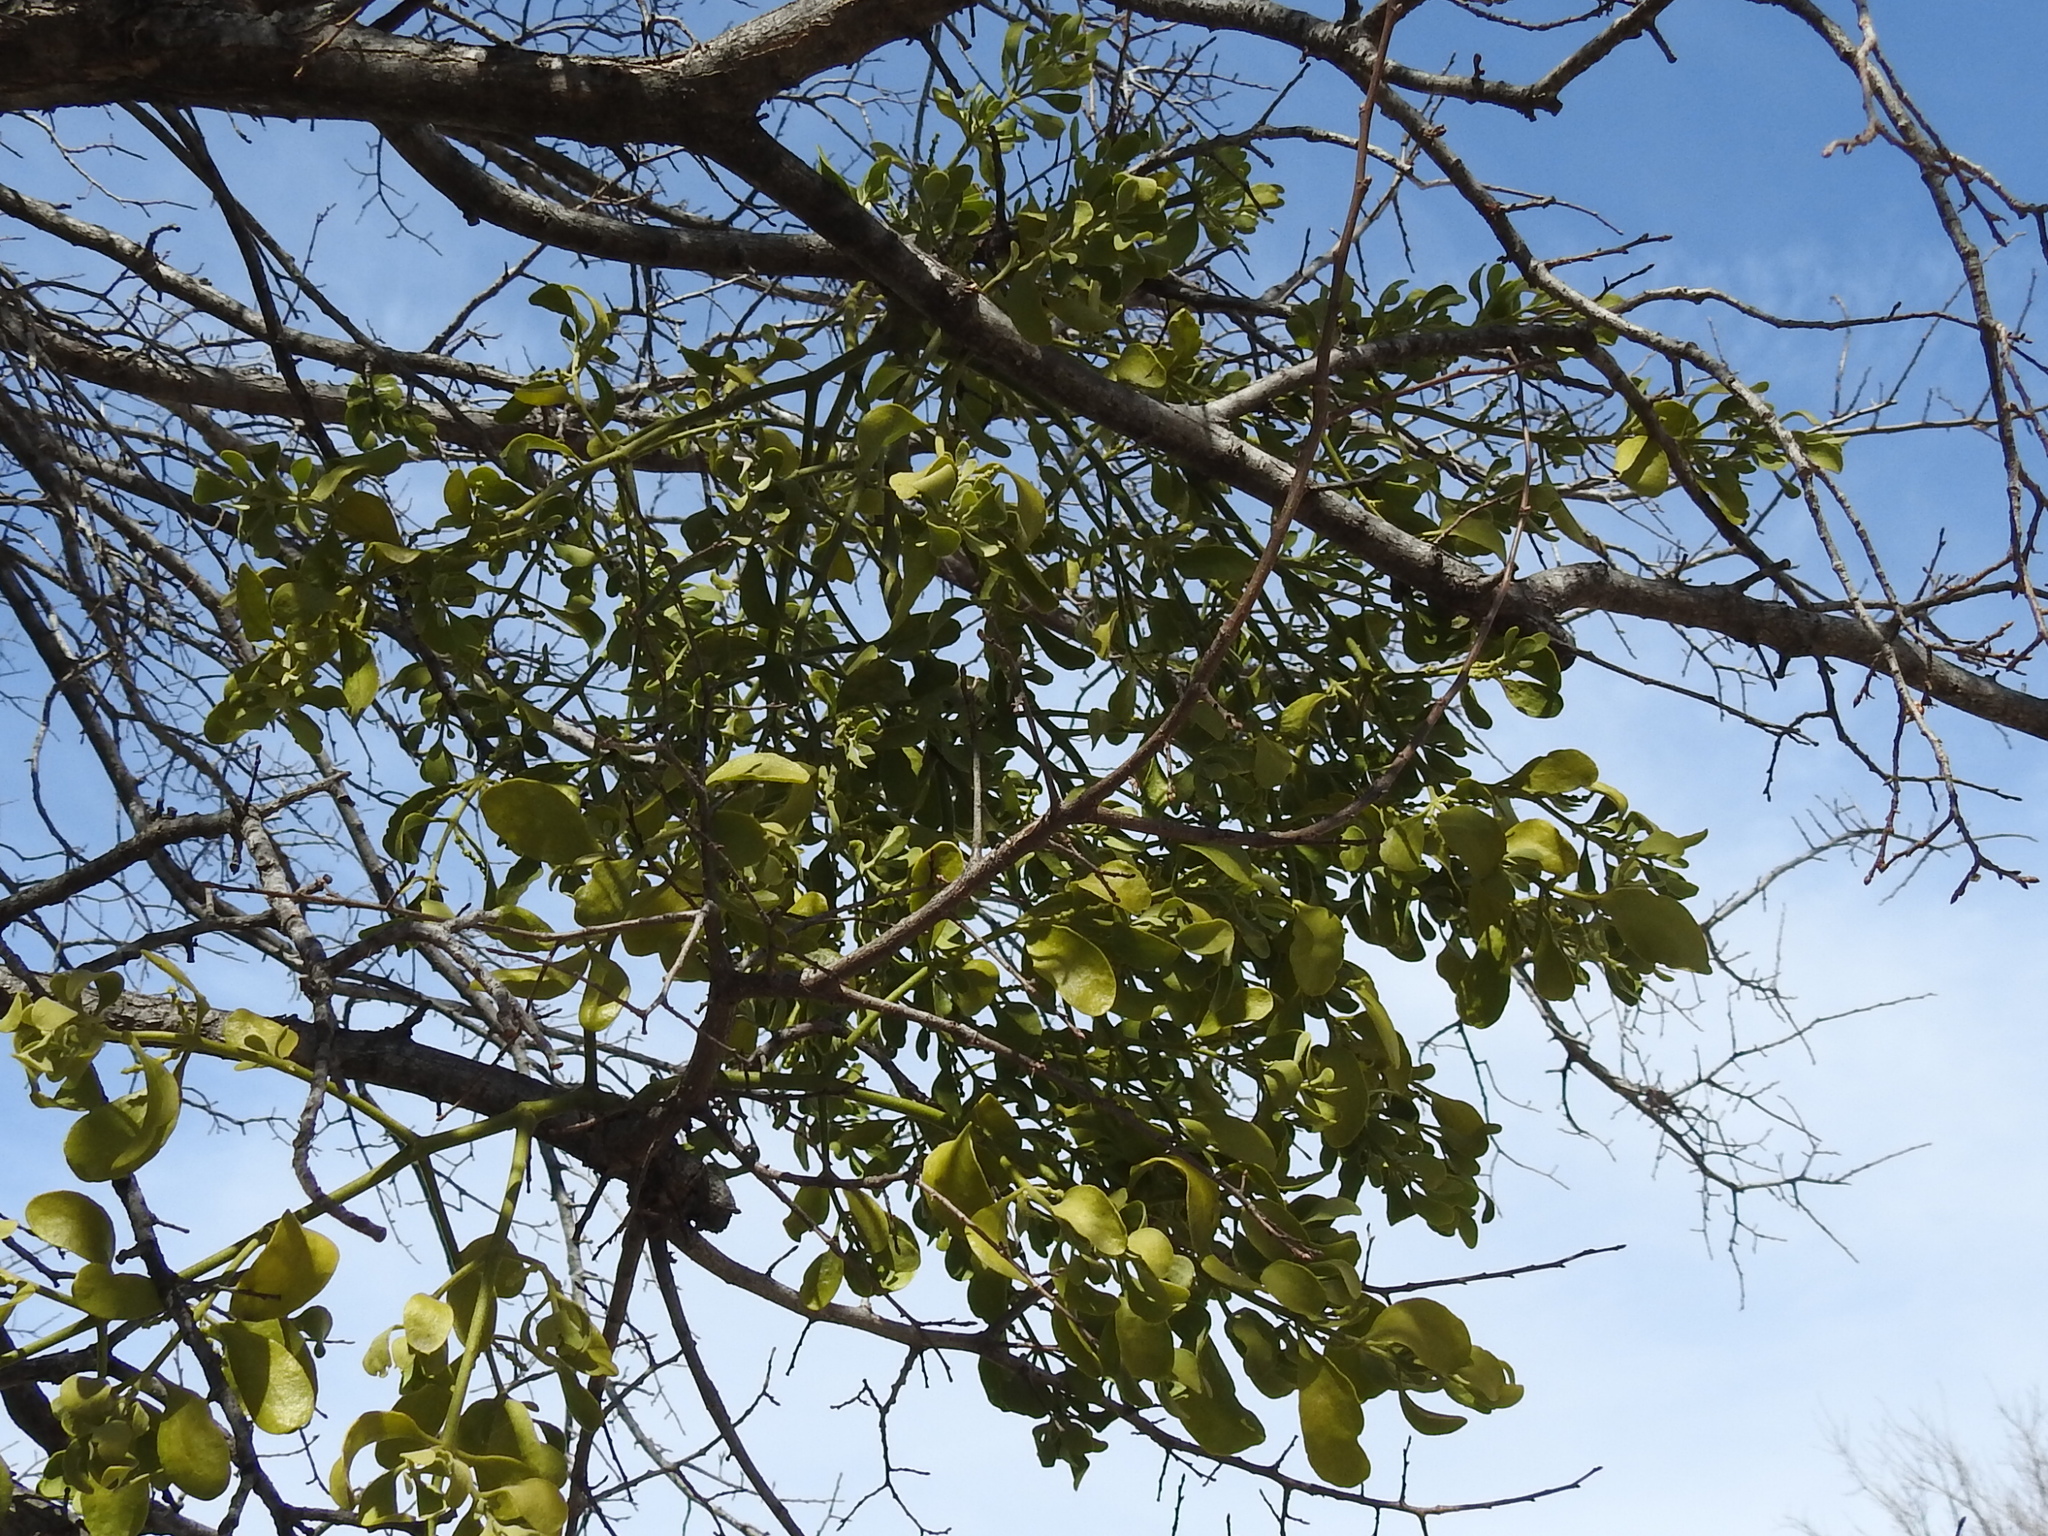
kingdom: Plantae
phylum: Tracheophyta
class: Magnoliopsida
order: Santalales
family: Viscaceae
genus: Phoradendron
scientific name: Phoradendron leucarpum
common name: Pacific mistletoe
